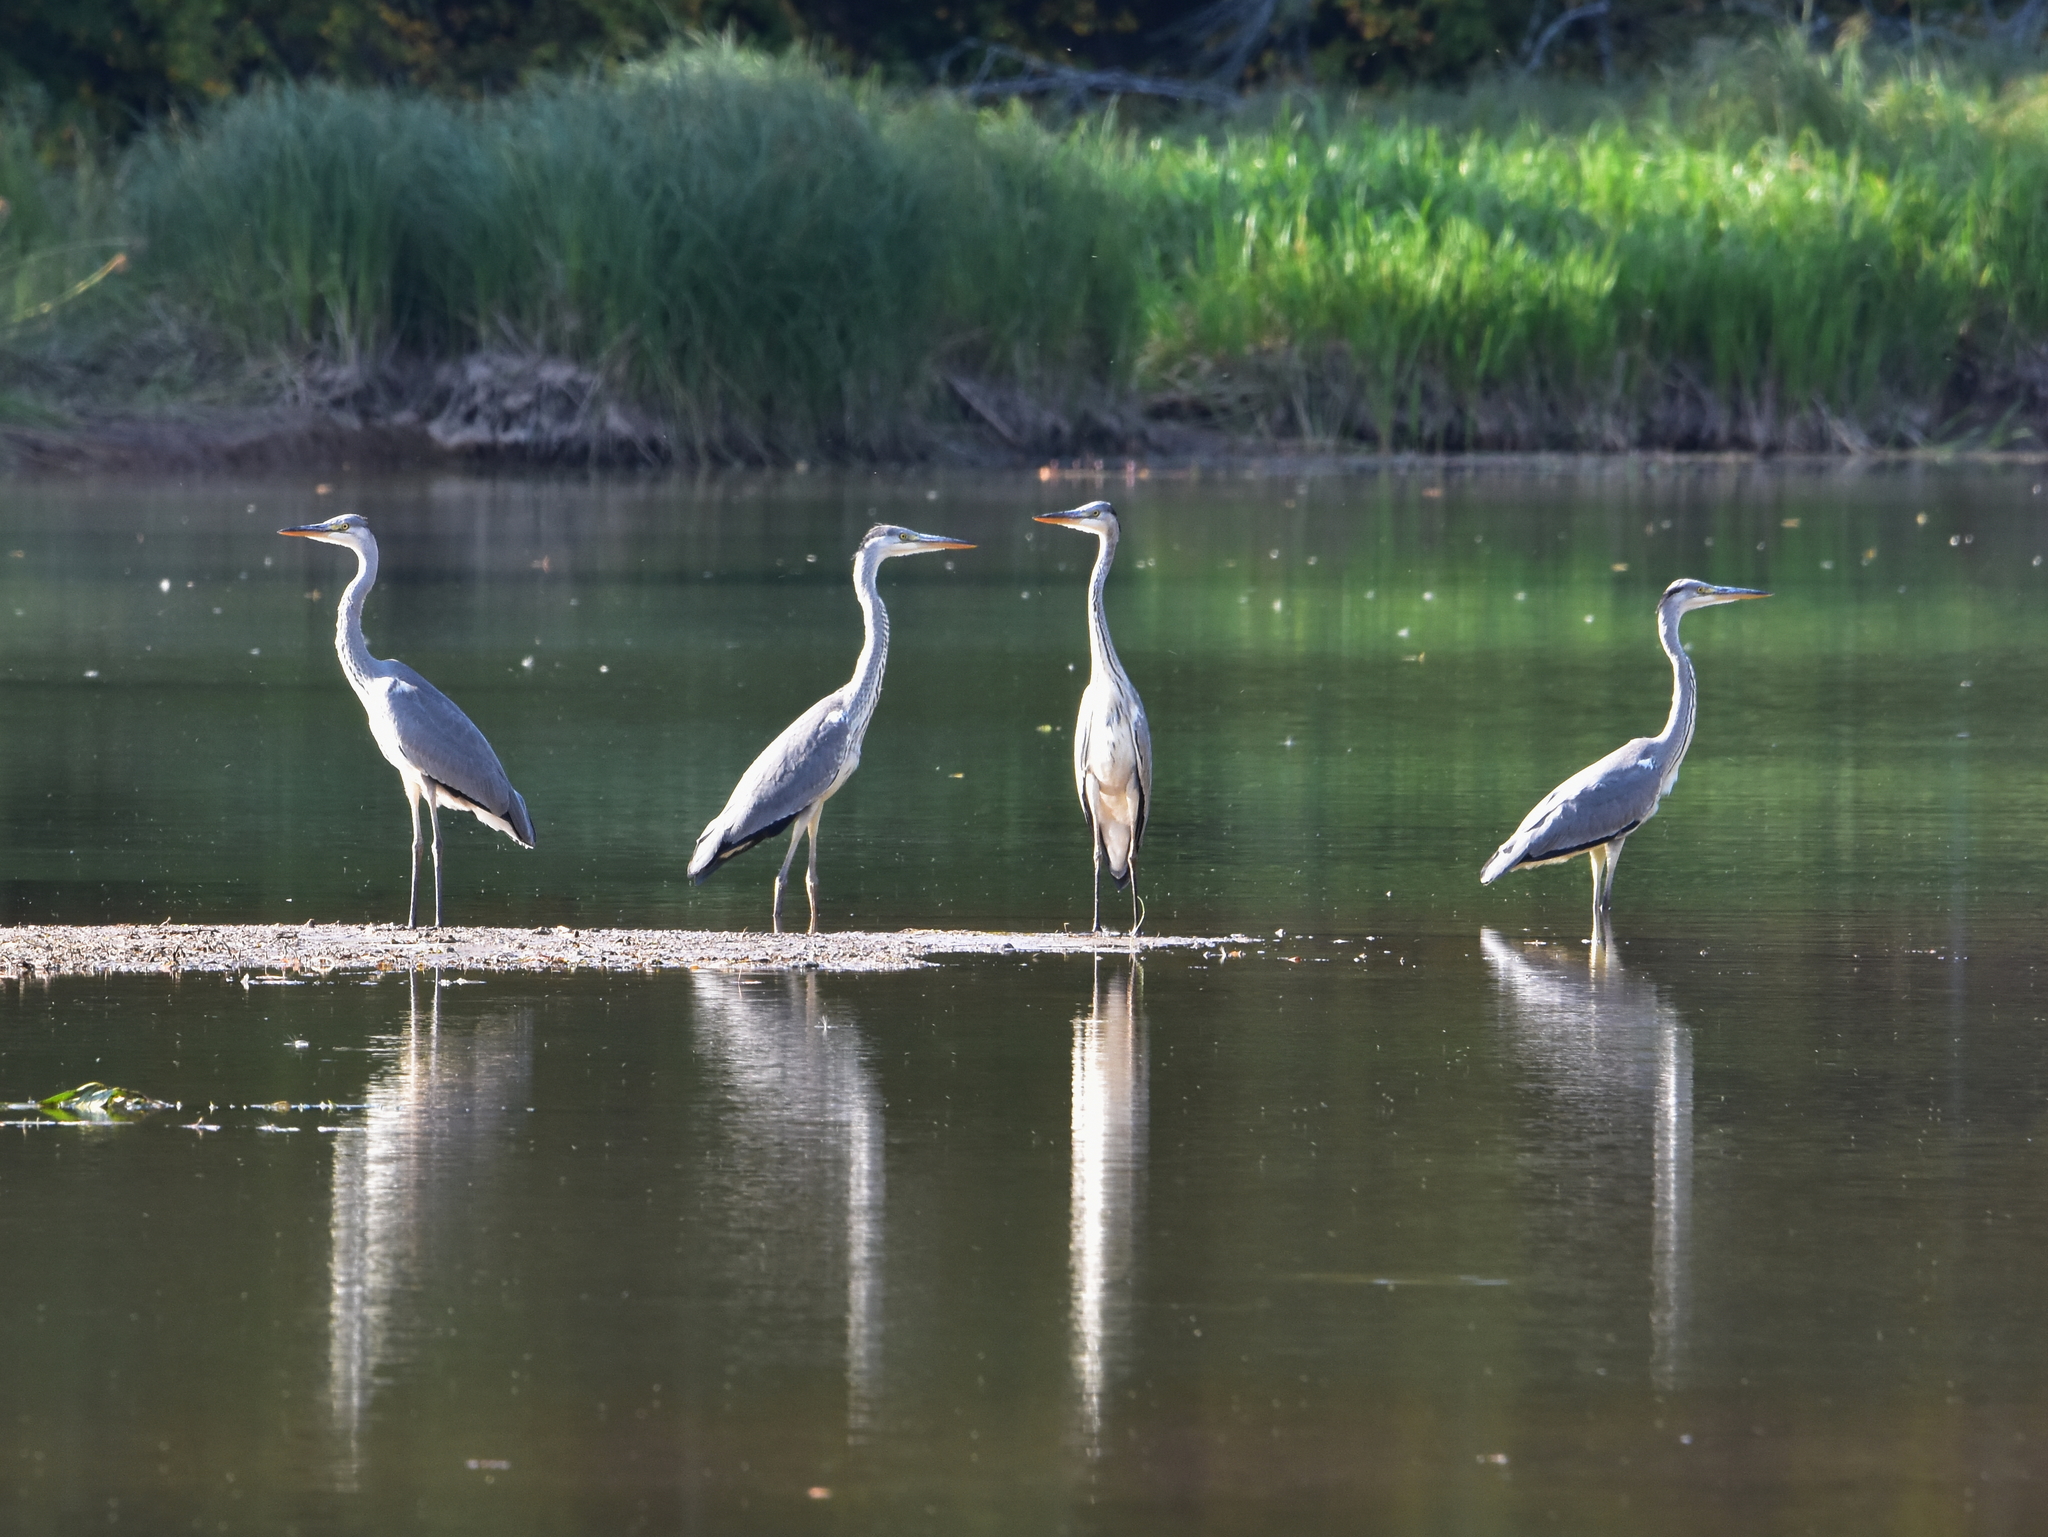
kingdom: Animalia
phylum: Chordata
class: Aves
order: Pelecaniformes
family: Ardeidae
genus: Ardea
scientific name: Ardea cinerea
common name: Grey heron
